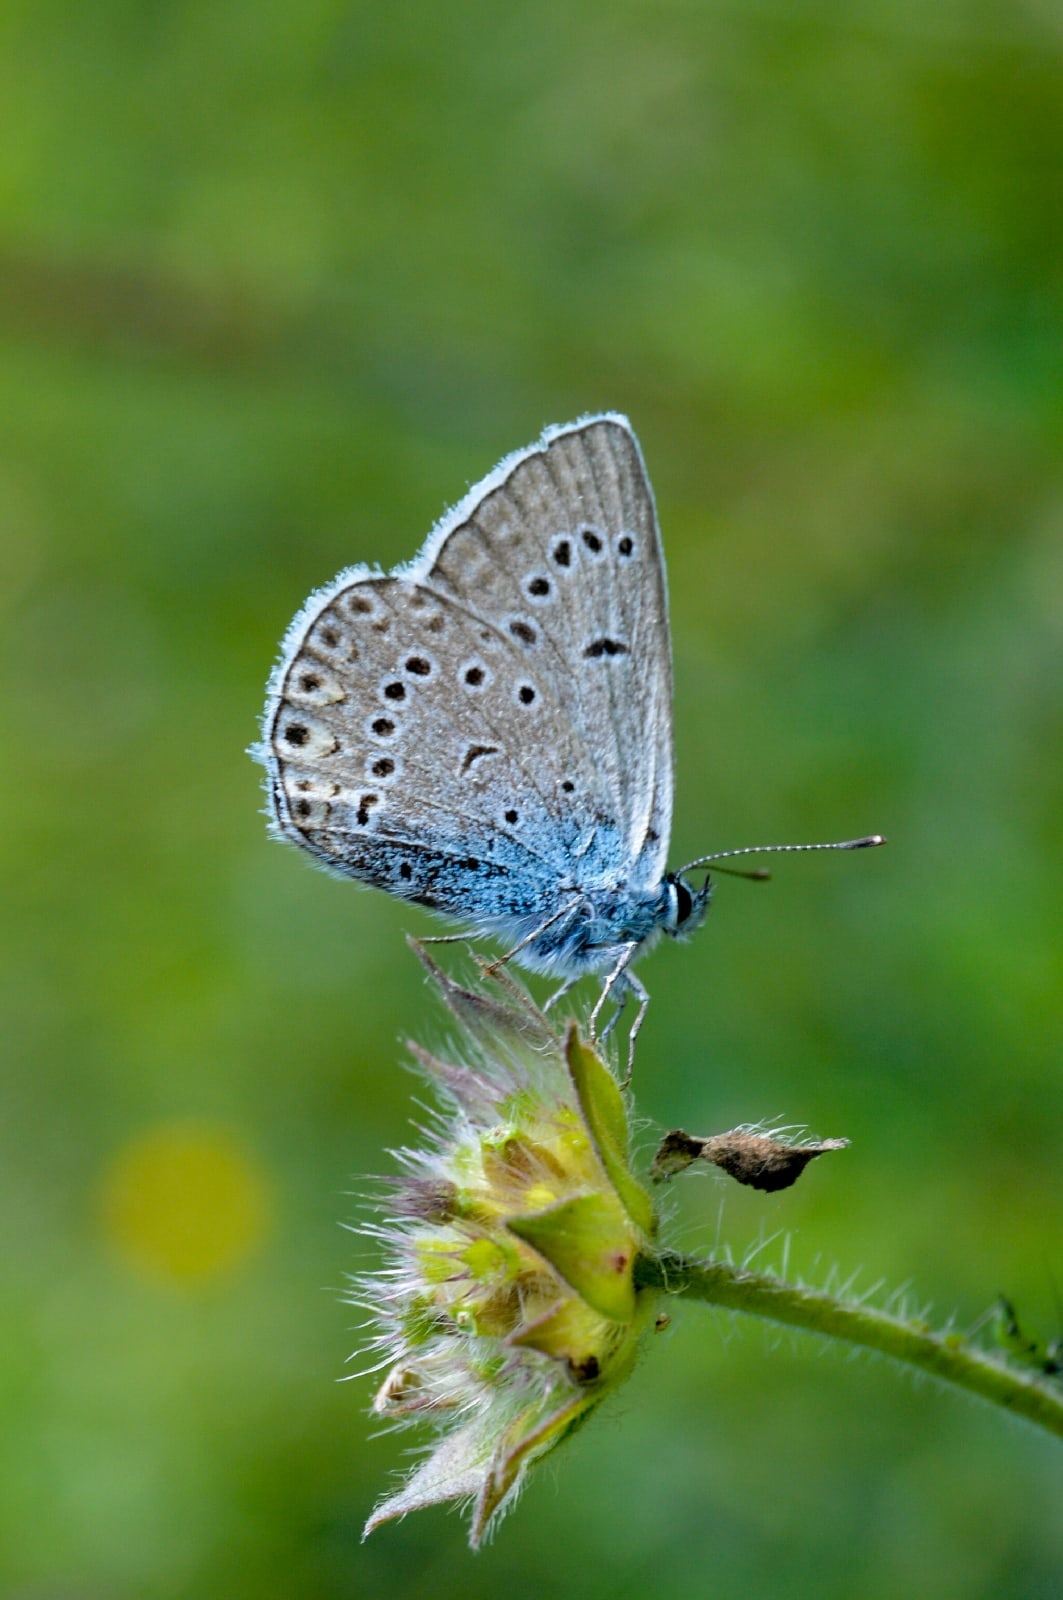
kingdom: Animalia
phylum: Arthropoda
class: Insecta
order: Lepidoptera
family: Lycaenidae
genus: Plebejus
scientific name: Plebejus amanda
